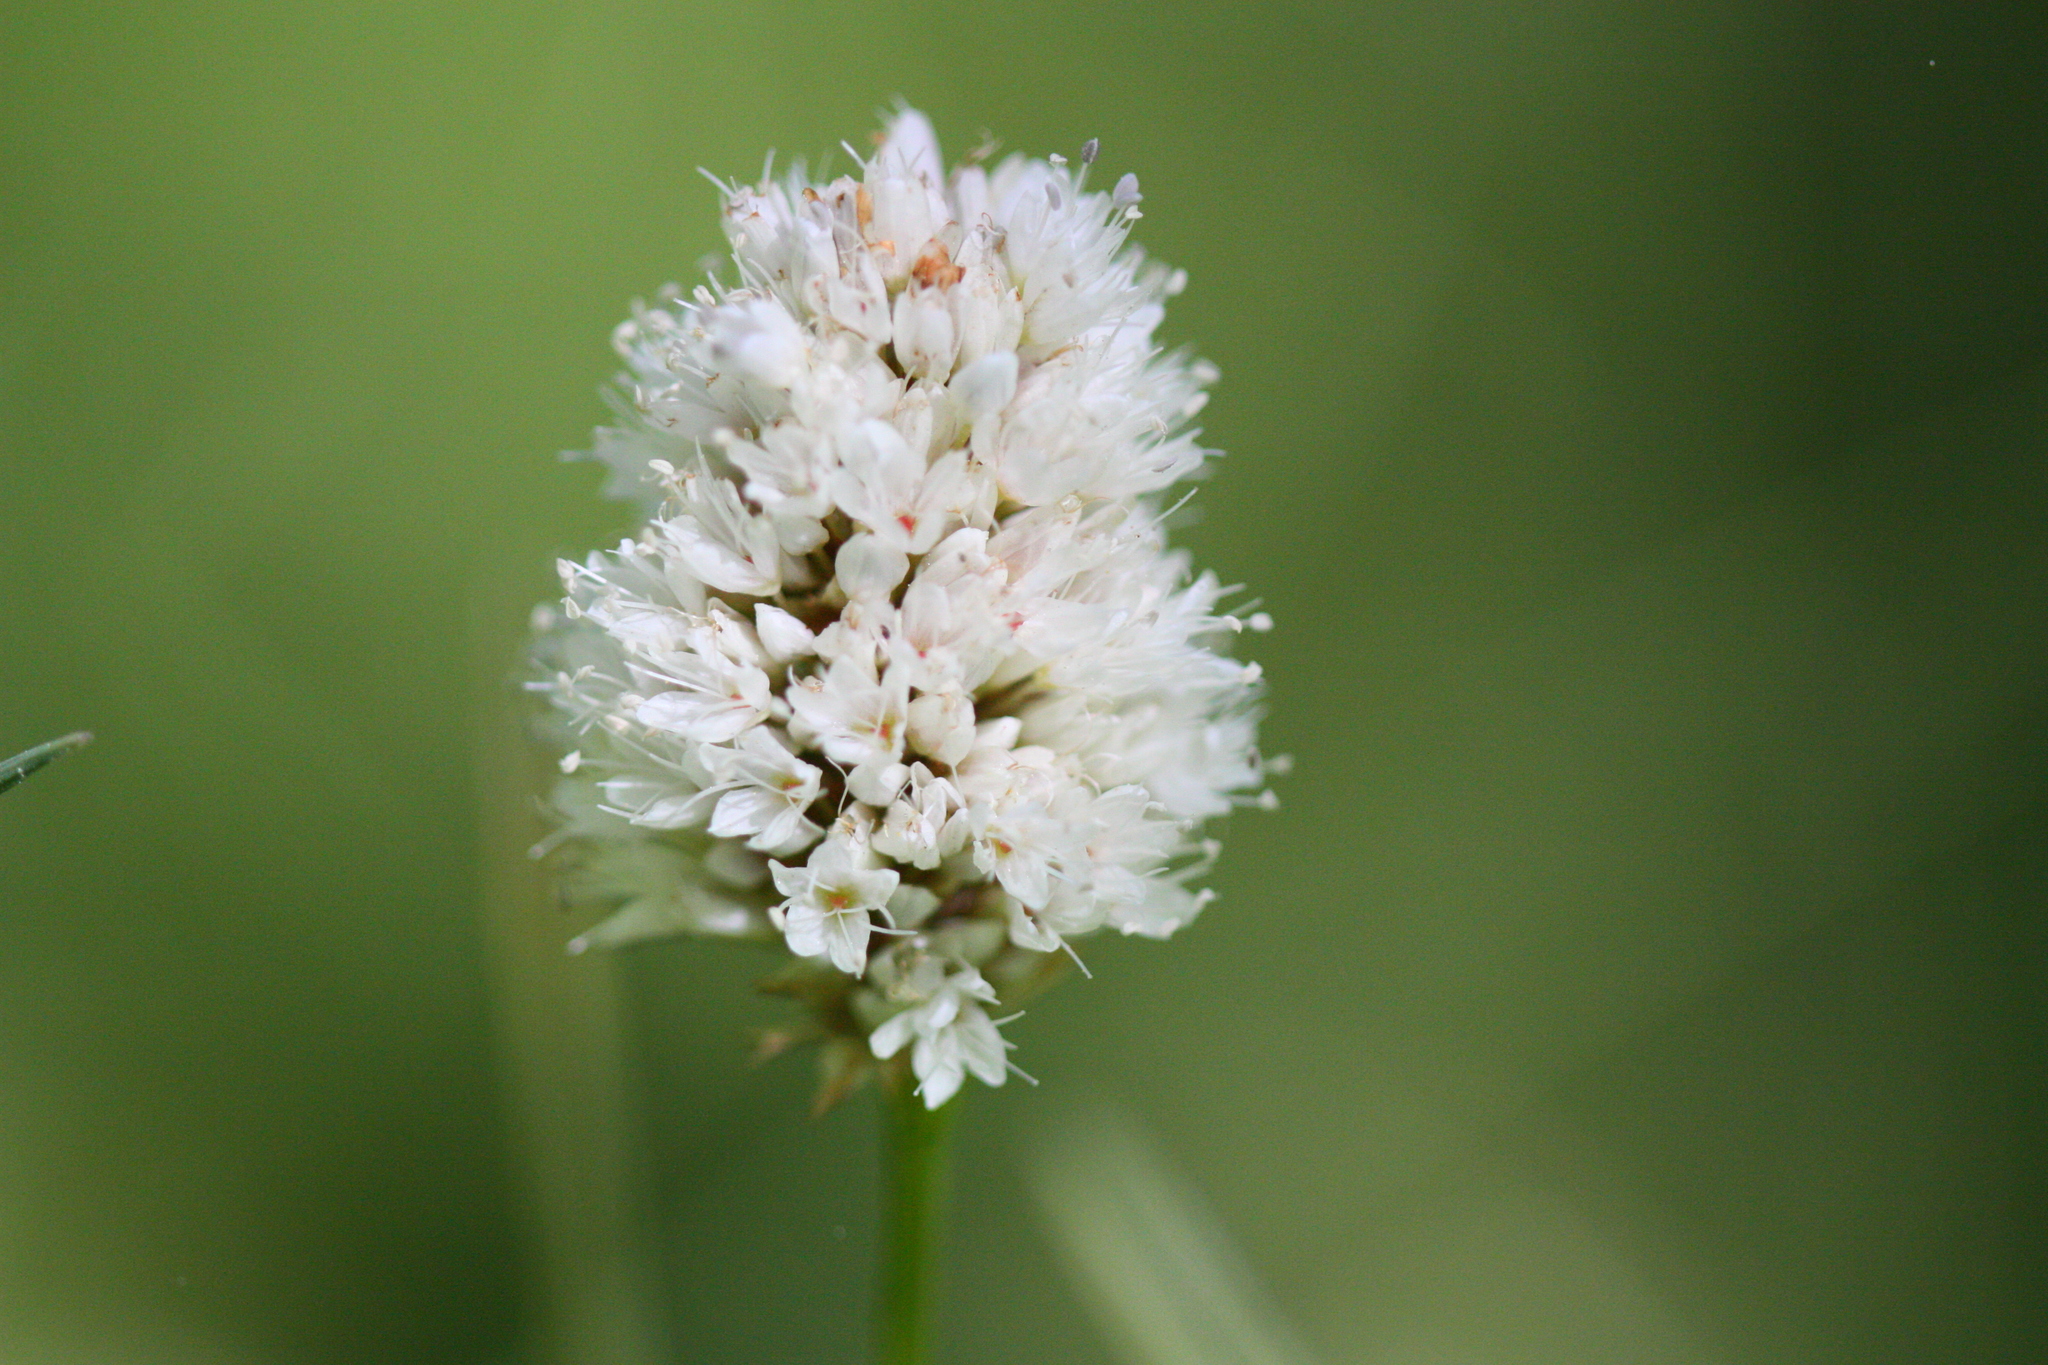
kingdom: Plantae
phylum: Tracheophyta
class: Magnoliopsida
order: Caryophyllales
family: Polygonaceae
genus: Bistorta
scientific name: Bistorta bistortoides
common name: American bistort
